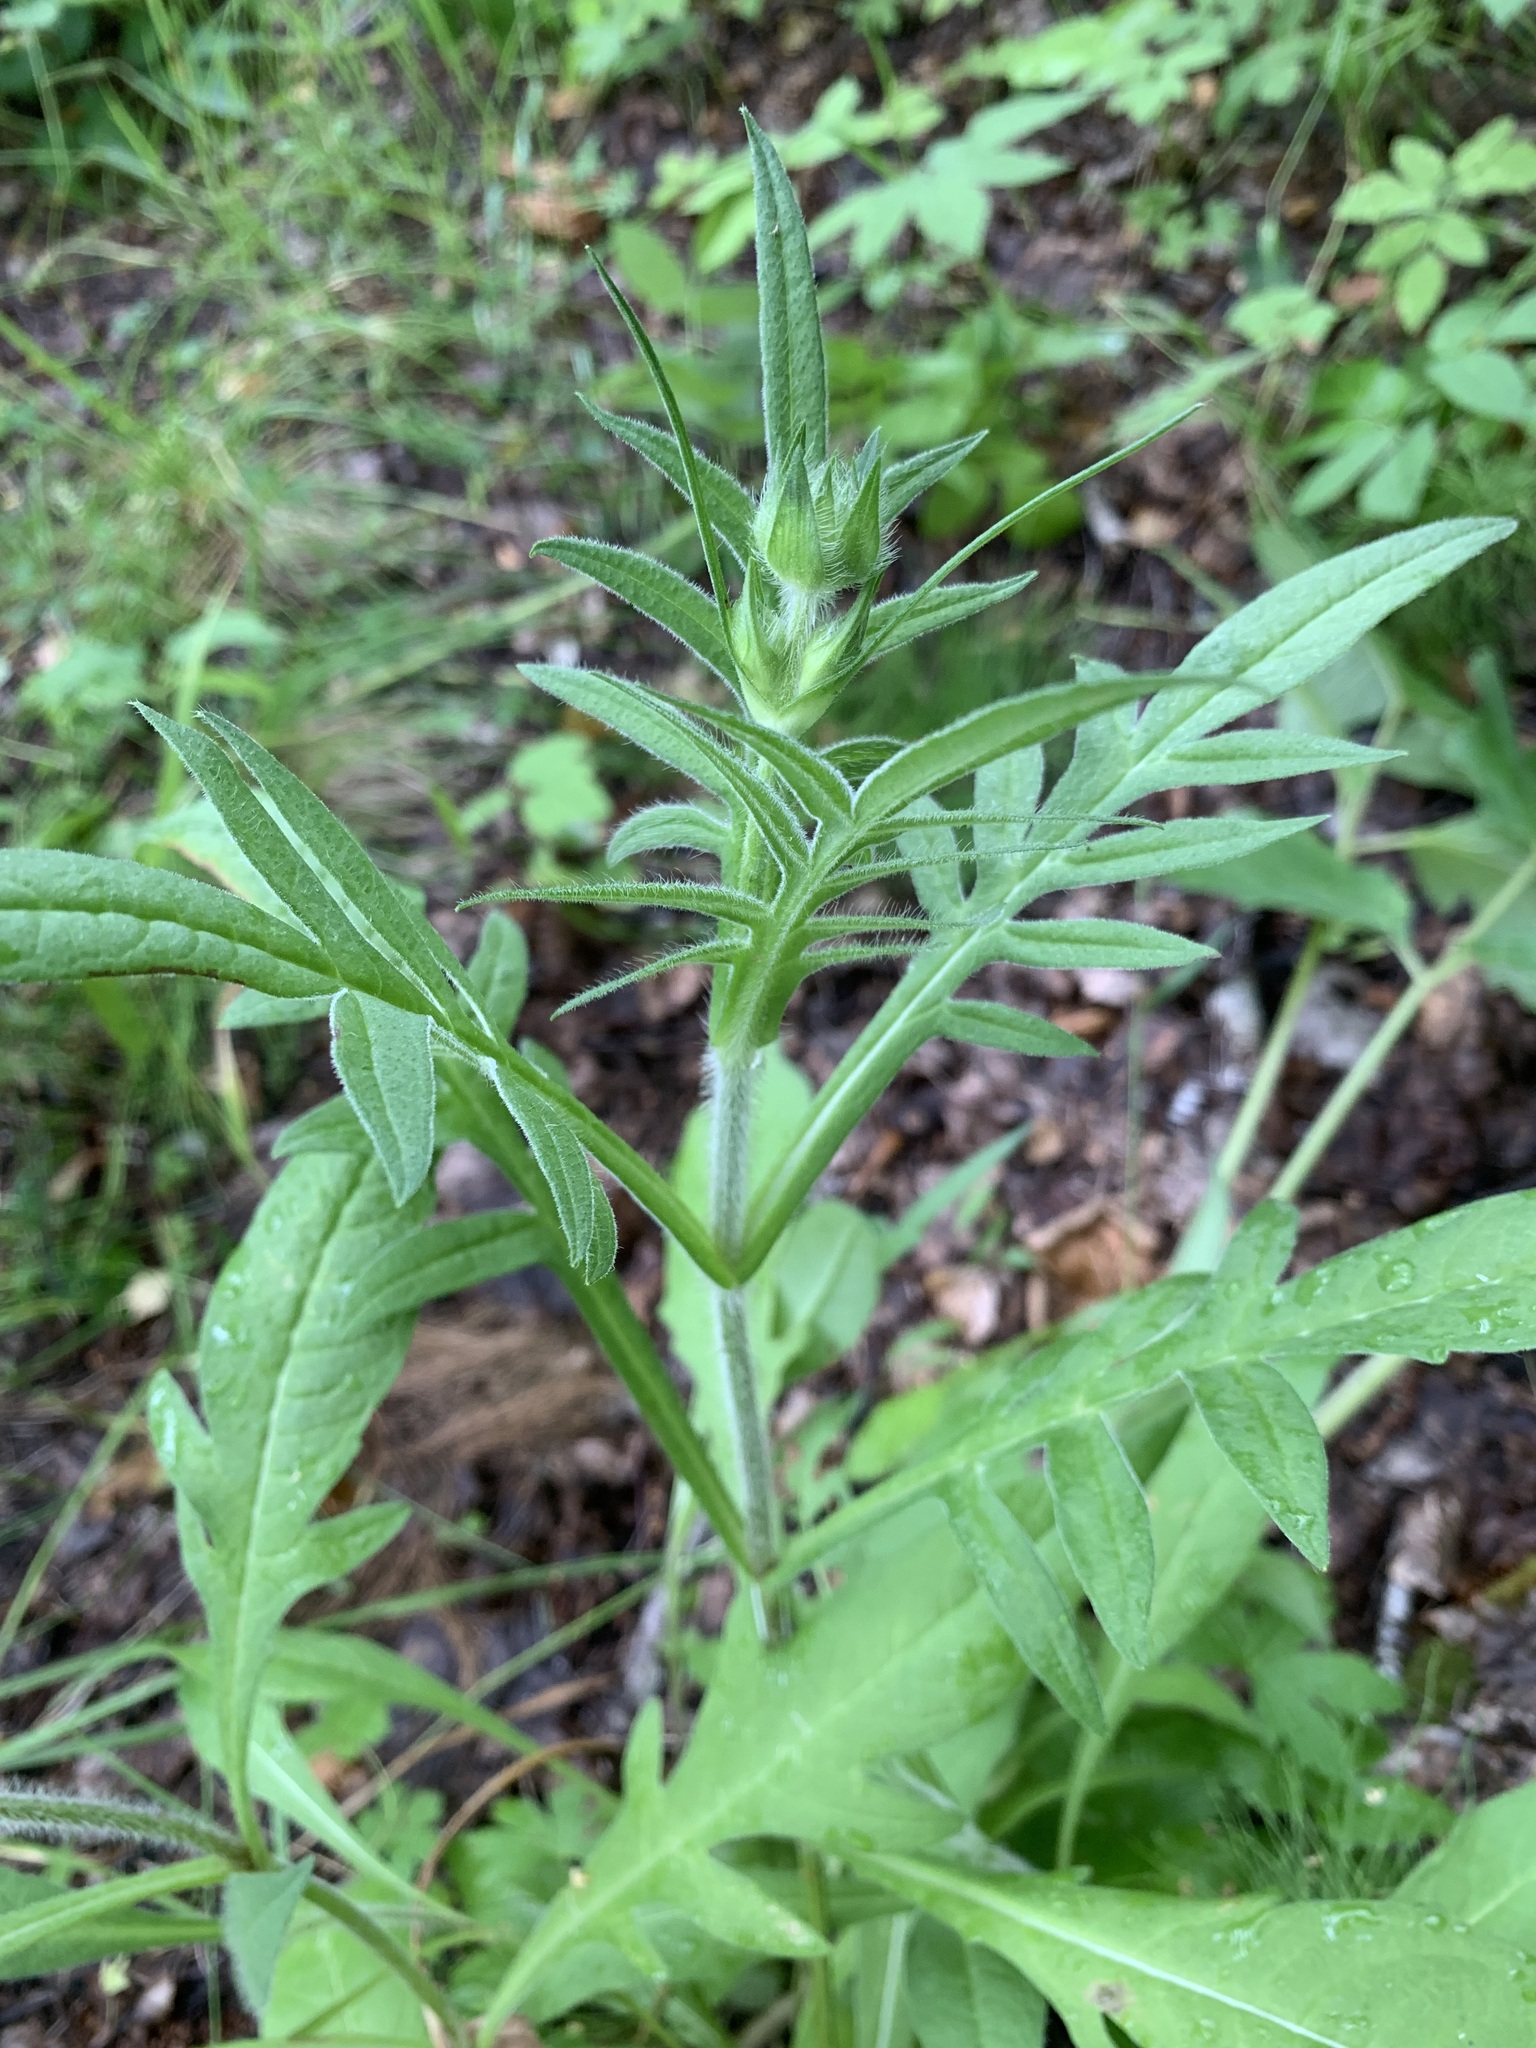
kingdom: Plantae
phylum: Tracheophyta
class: Magnoliopsida
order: Dipsacales
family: Caprifoliaceae
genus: Knautia
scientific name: Knautia arvensis
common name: Field scabiosa
